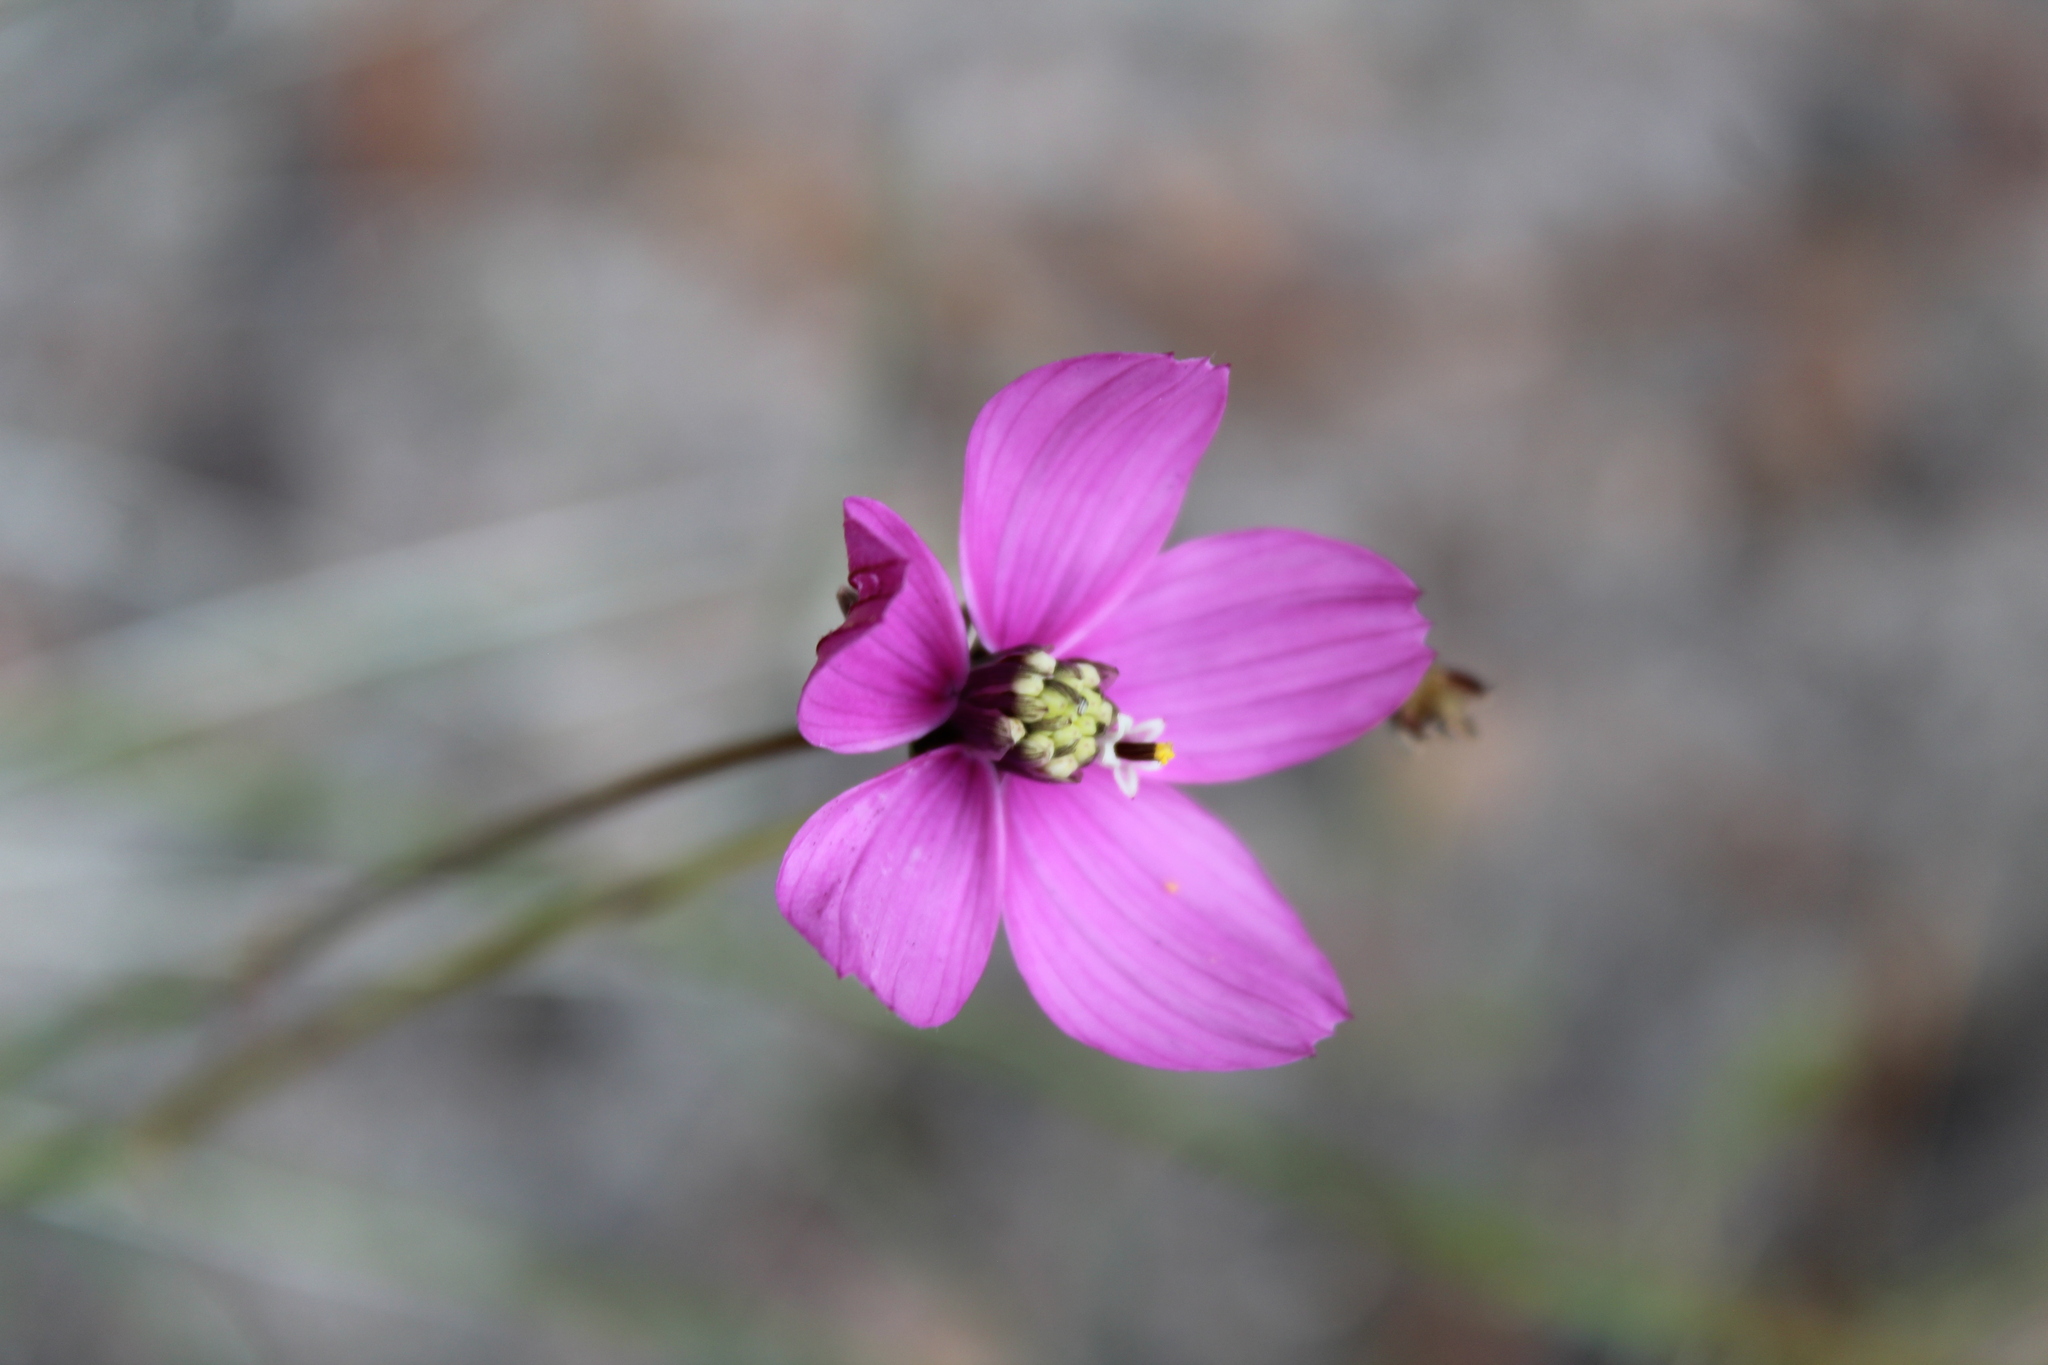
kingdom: Plantae
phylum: Tracheophyta
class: Magnoliopsida
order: Asterales
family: Asteraceae
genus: Cosmos
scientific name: Cosmos ochroleucoflorus
